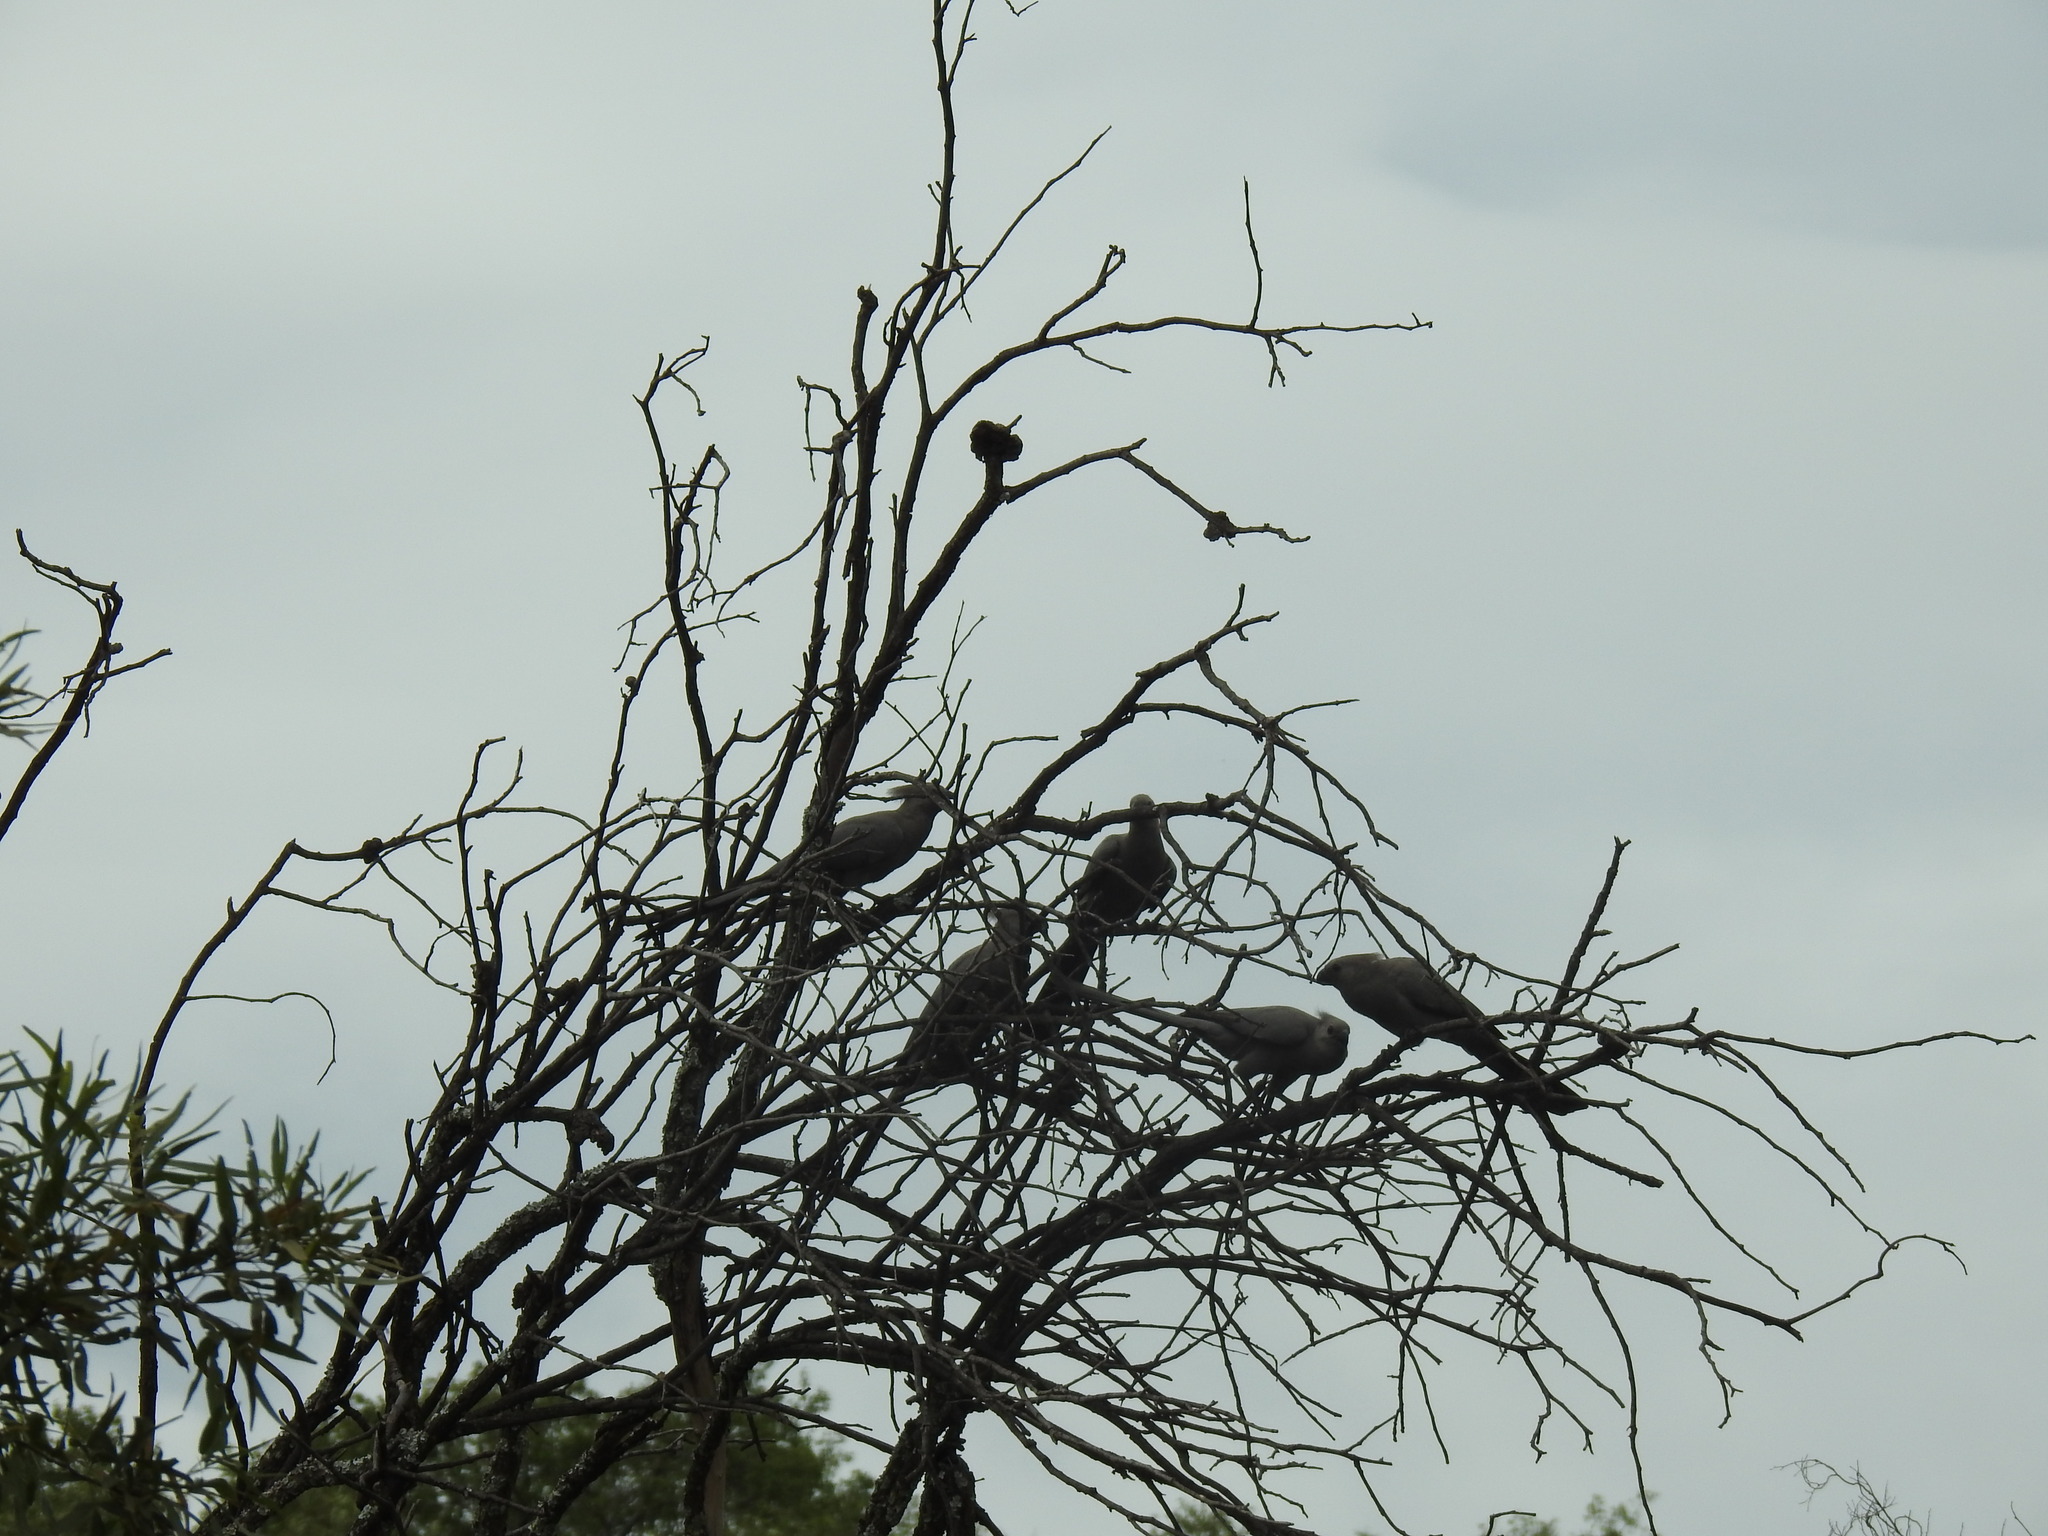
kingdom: Animalia
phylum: Chordata
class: Aves
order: Musophagiformes
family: Musophagidae
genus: Corythaixoides
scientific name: Corythaixoides concolor
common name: Grey go-away-bird
